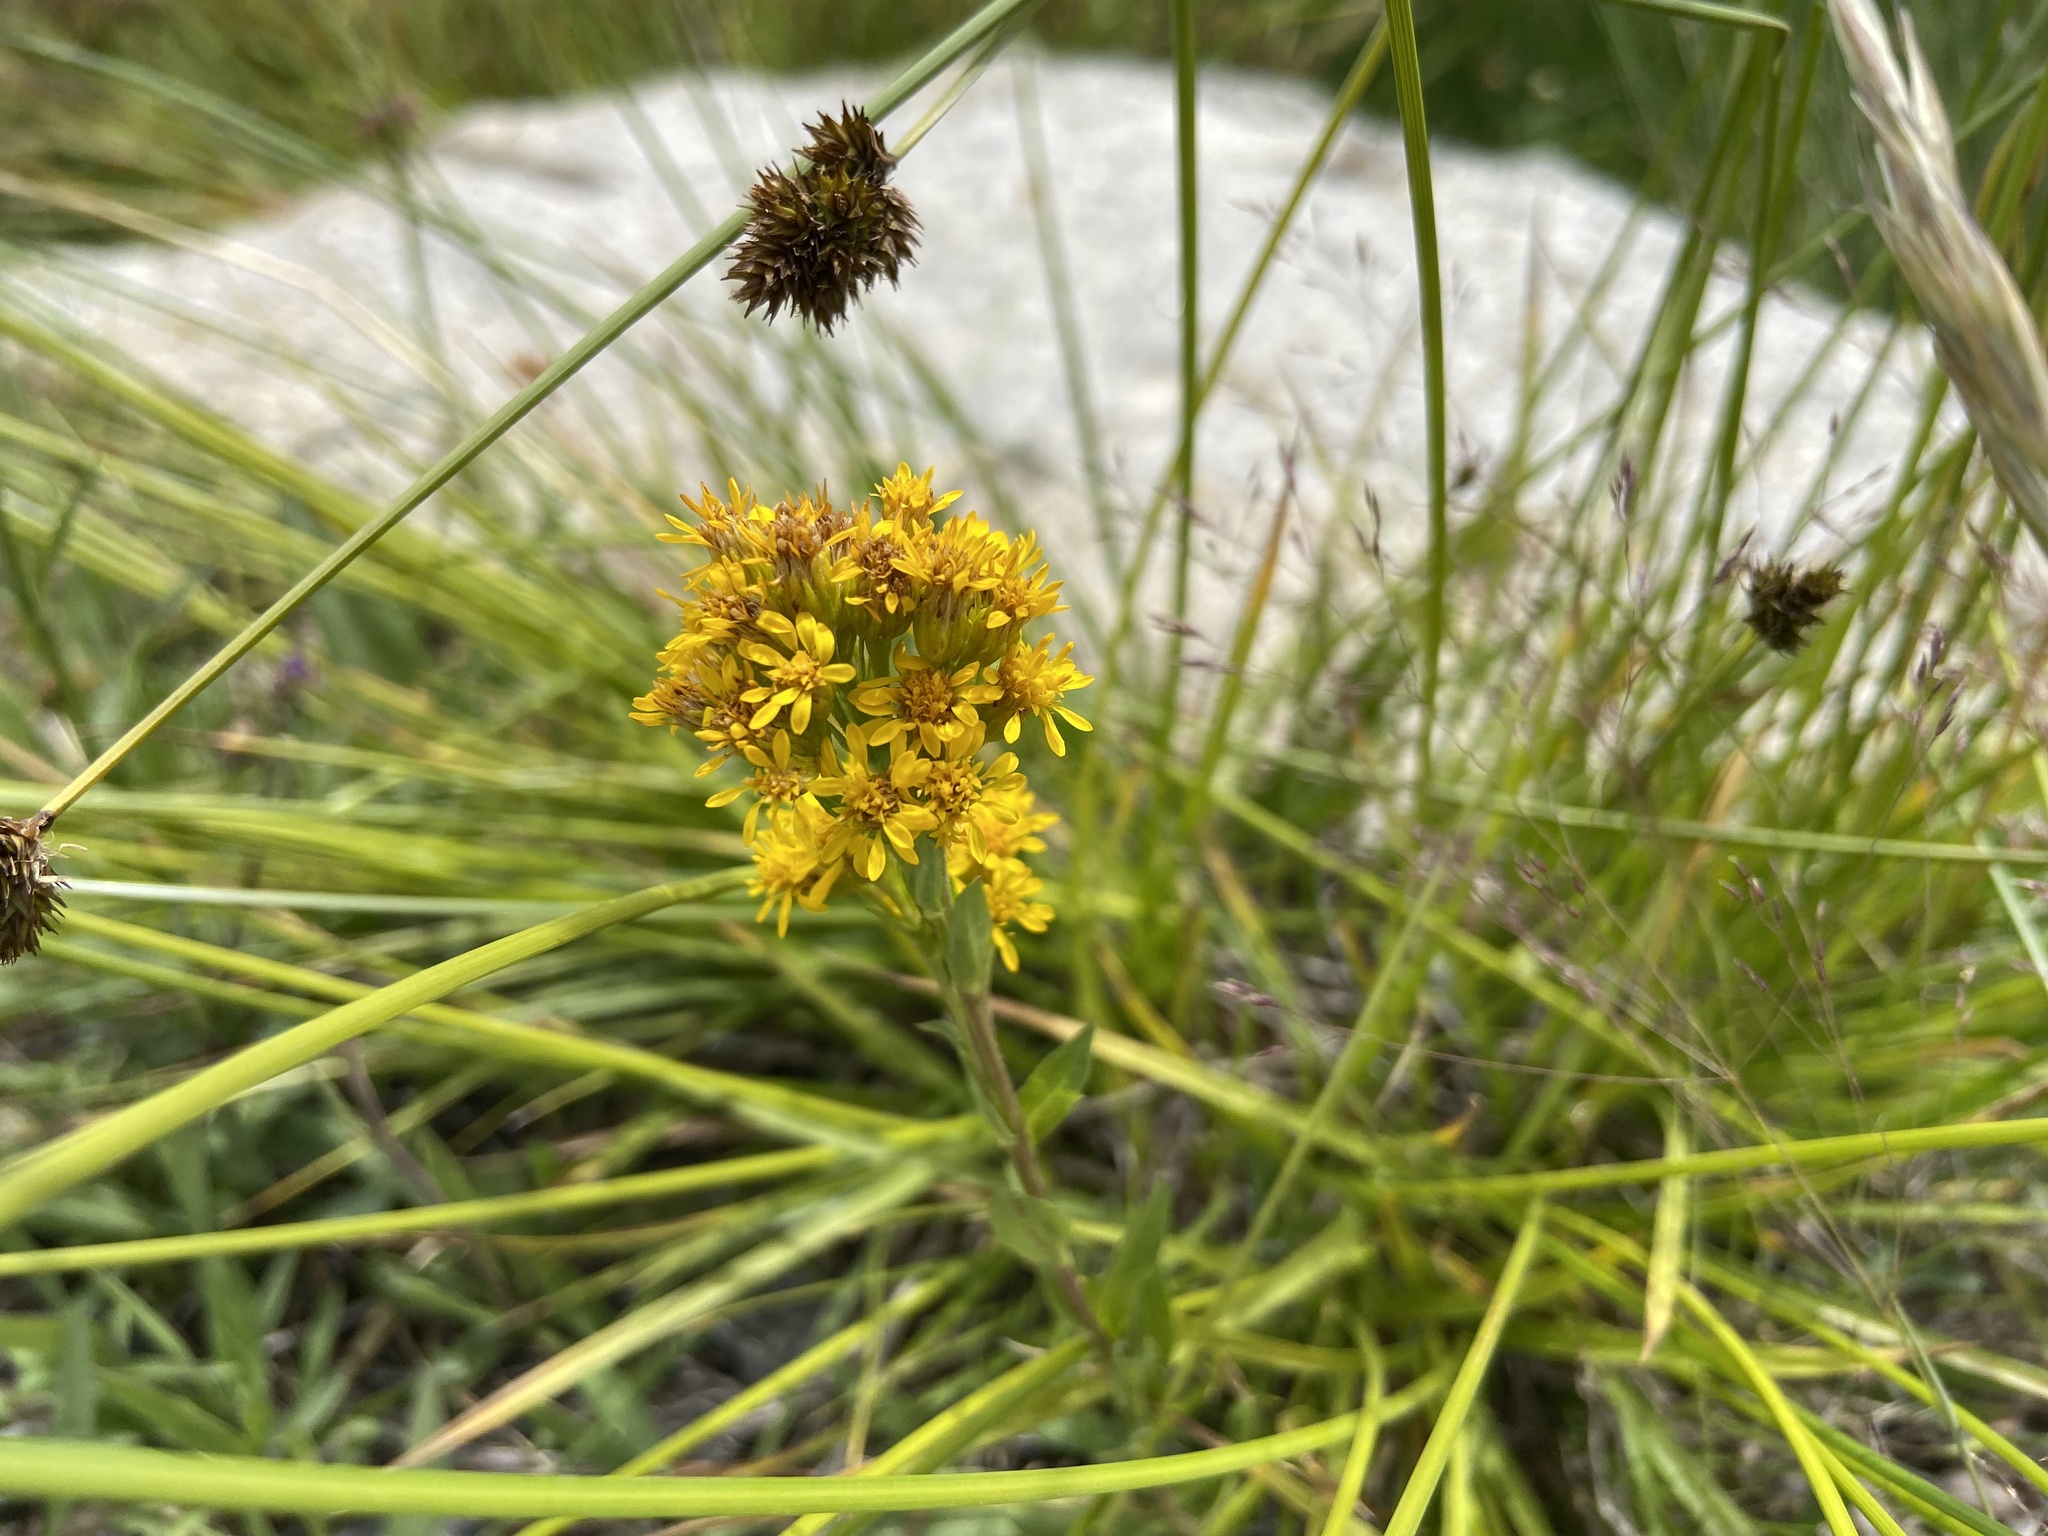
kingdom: Plantae
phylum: Tracheophyta
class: Magnoliopsida
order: Asterales
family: Asteraceae
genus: Solidago
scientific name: Solidago multiradiata
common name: Northern goldenrod
